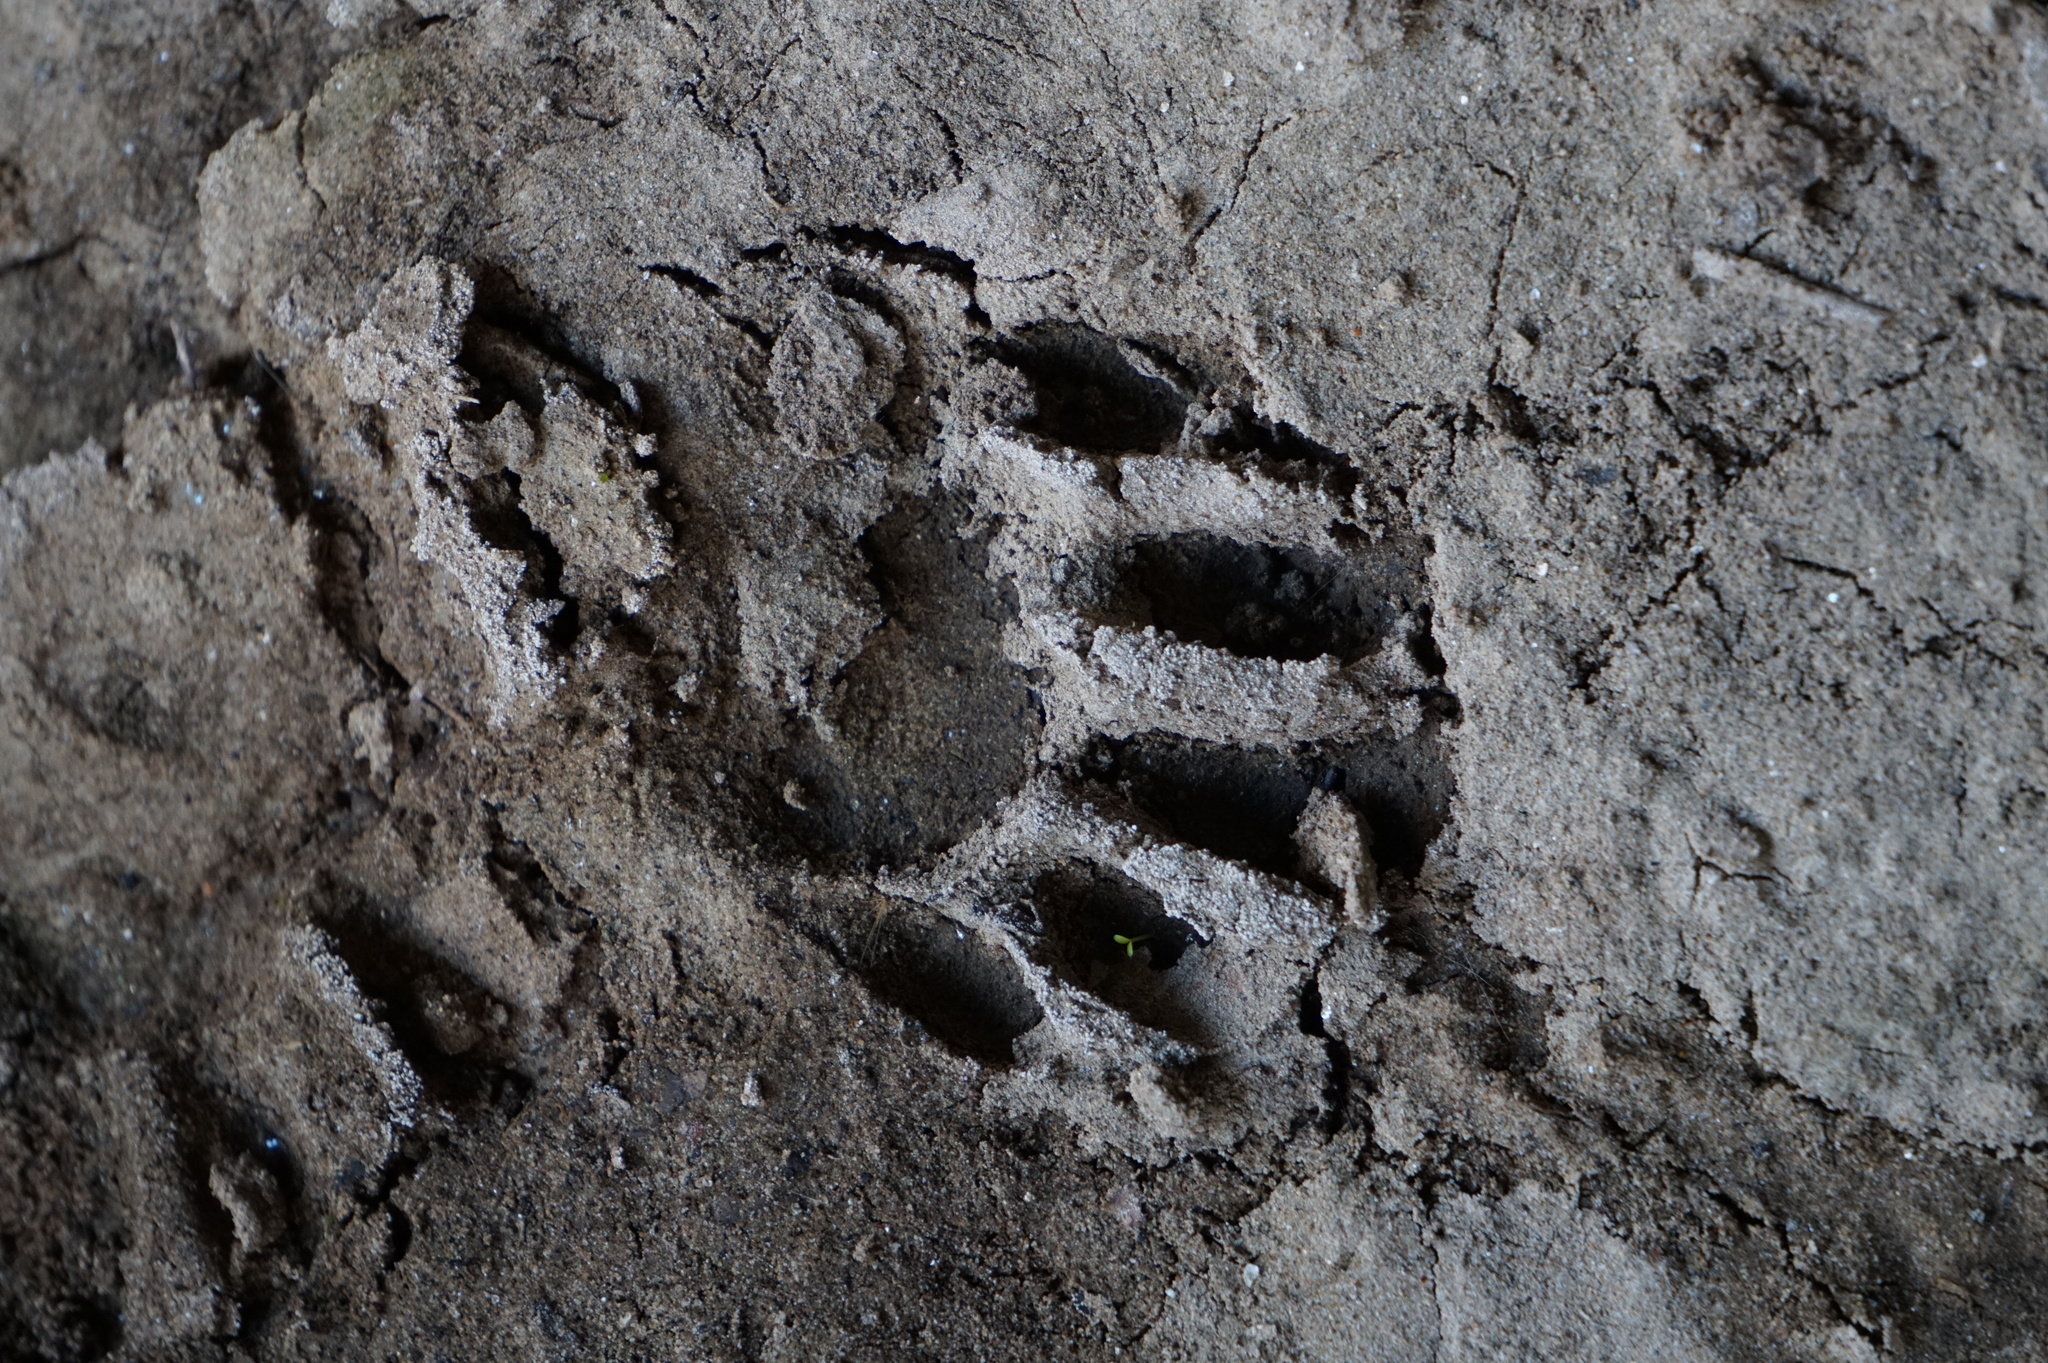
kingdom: Animalia
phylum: Chordata
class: Mammalia
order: Carnivora
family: Procyonidae
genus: Procyon
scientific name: Procyon lotor
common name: Raccoon
